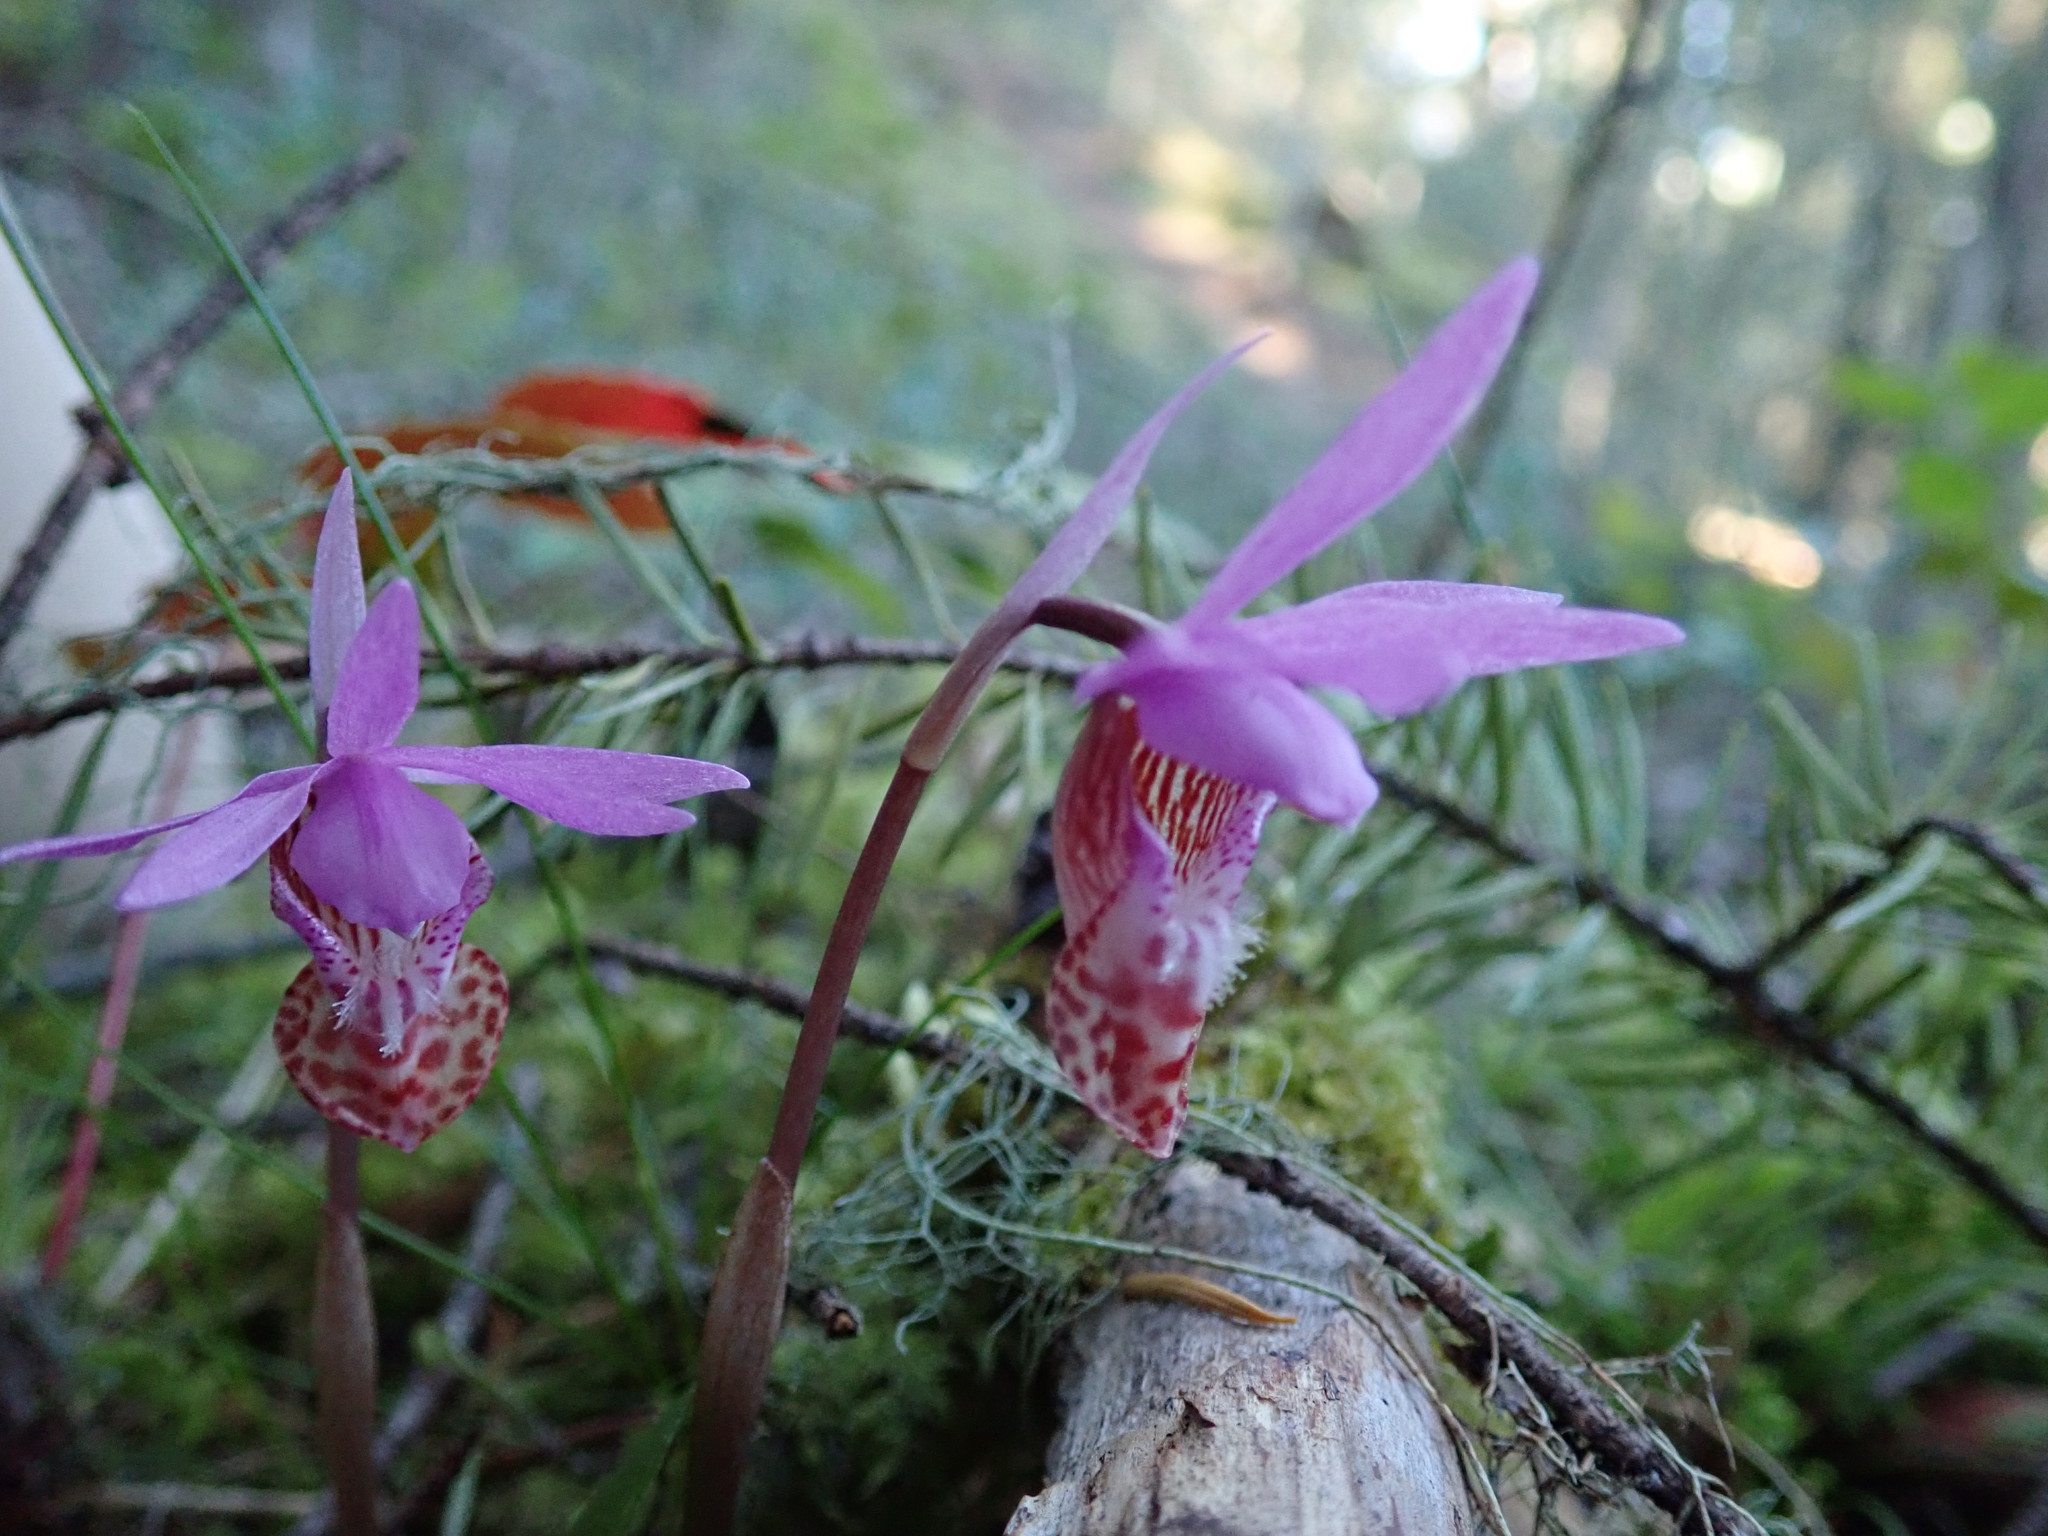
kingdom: Plantae
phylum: Tracheophyta
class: Liliopsida
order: Asparagales
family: Orchidaceae
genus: Calypso
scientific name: Calypso bulbosa
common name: Calypso
